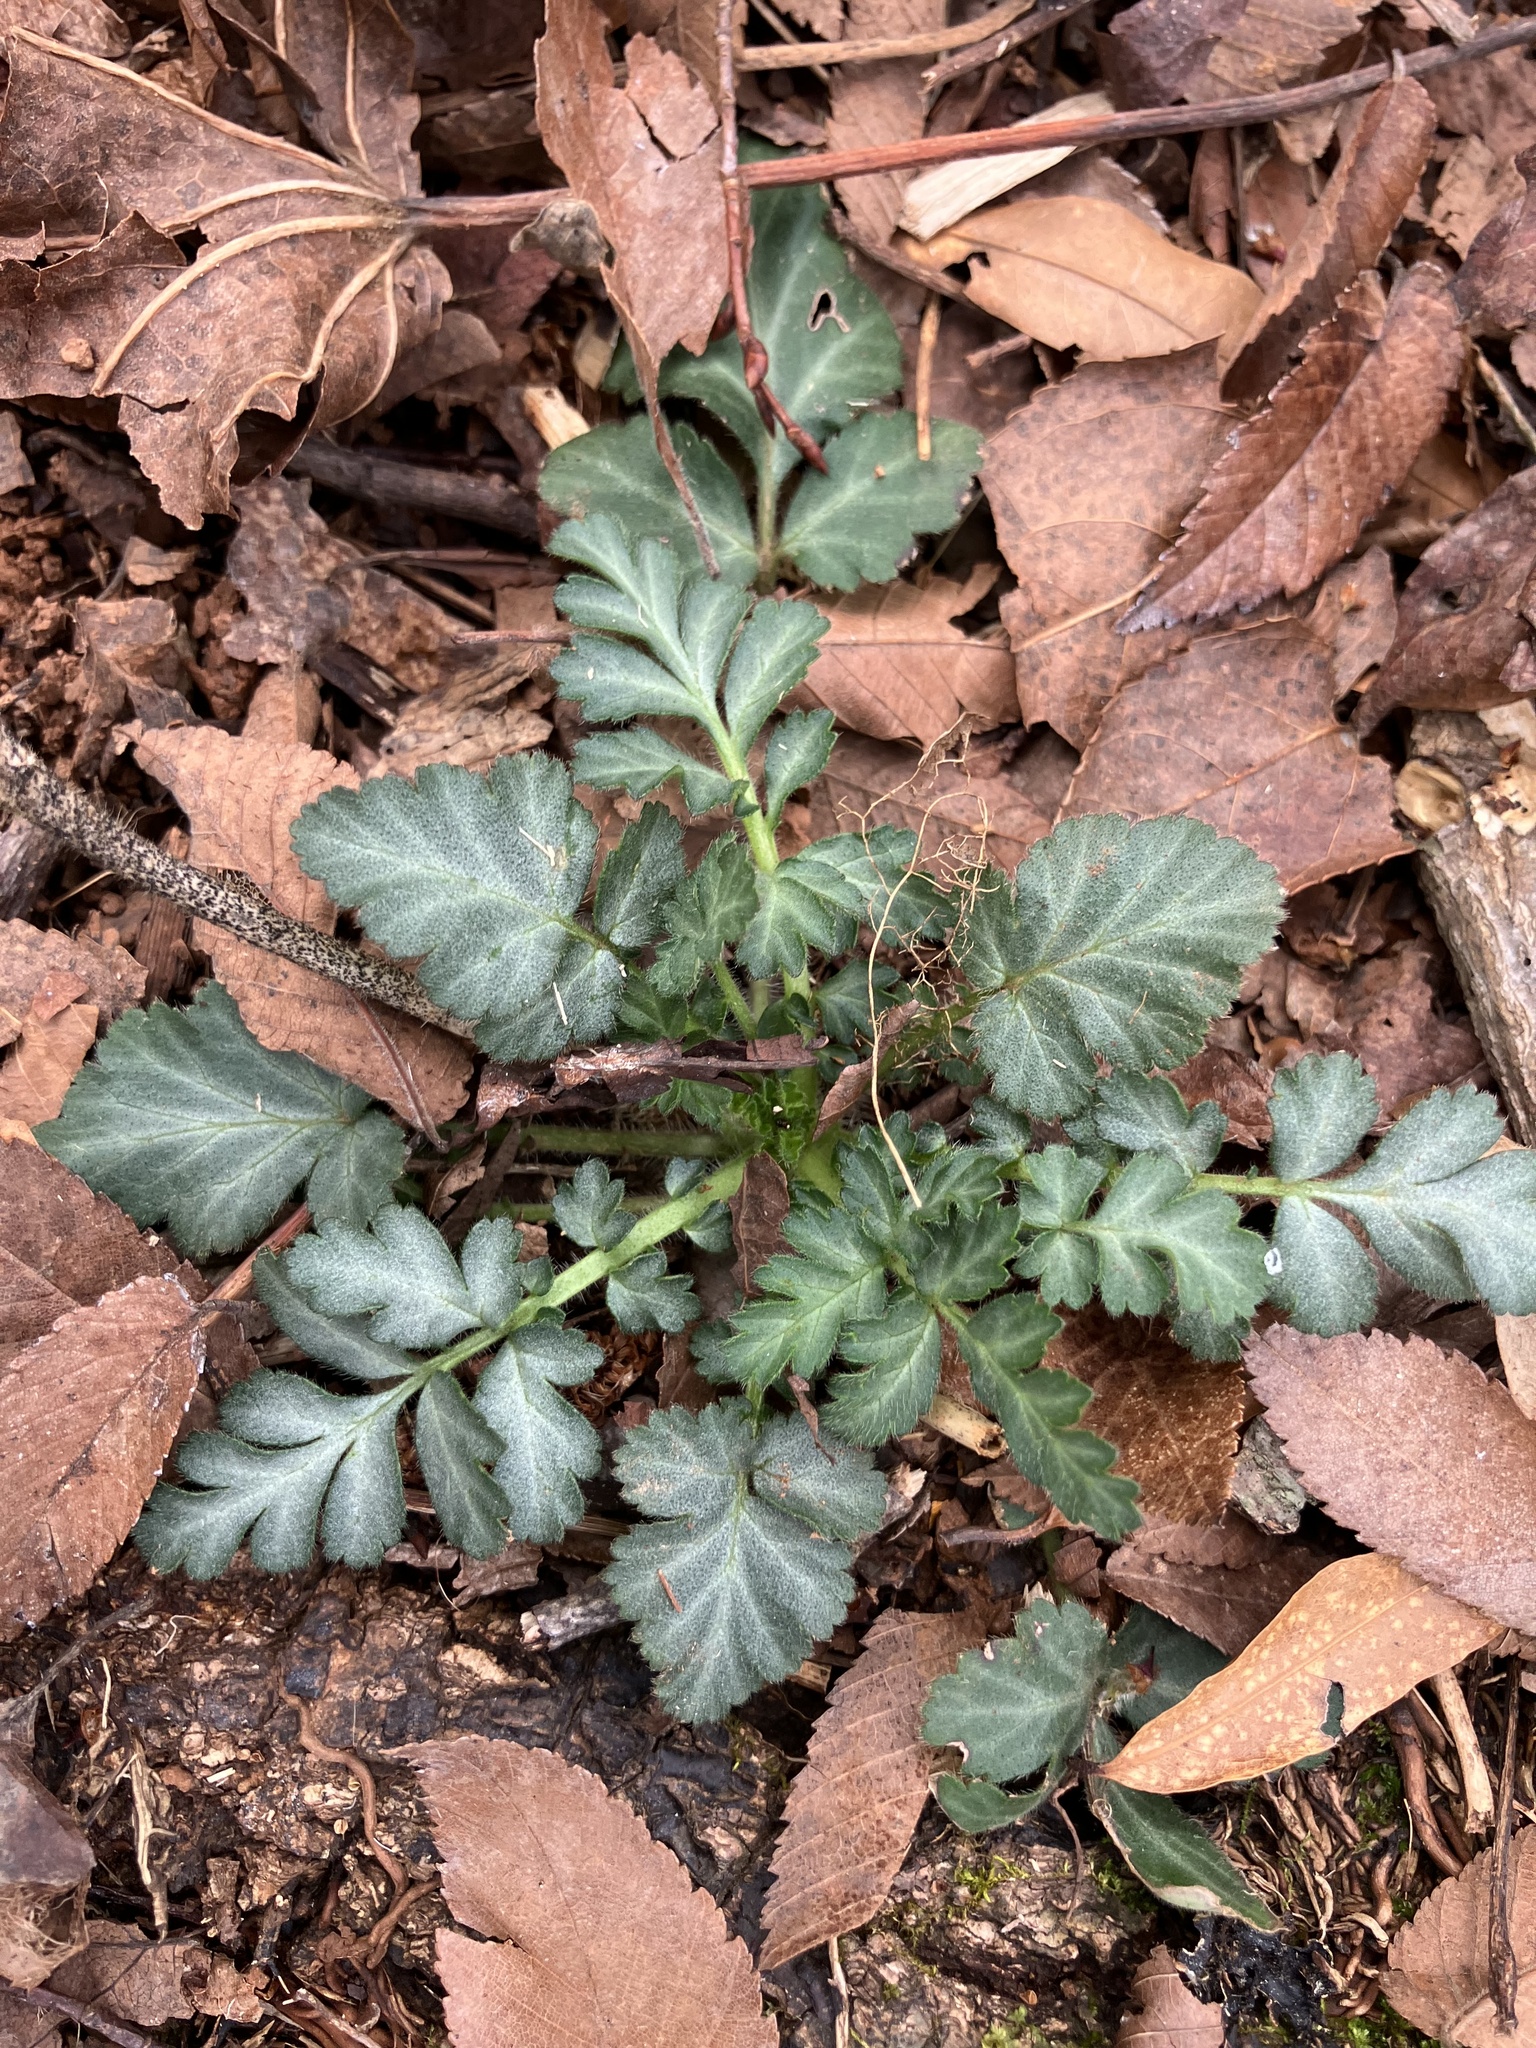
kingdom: Plantae
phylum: Tracheophyta
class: Magnoliopsida
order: Rosales
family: Rosaceae
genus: Geum
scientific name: Geum canadense
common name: White avens
